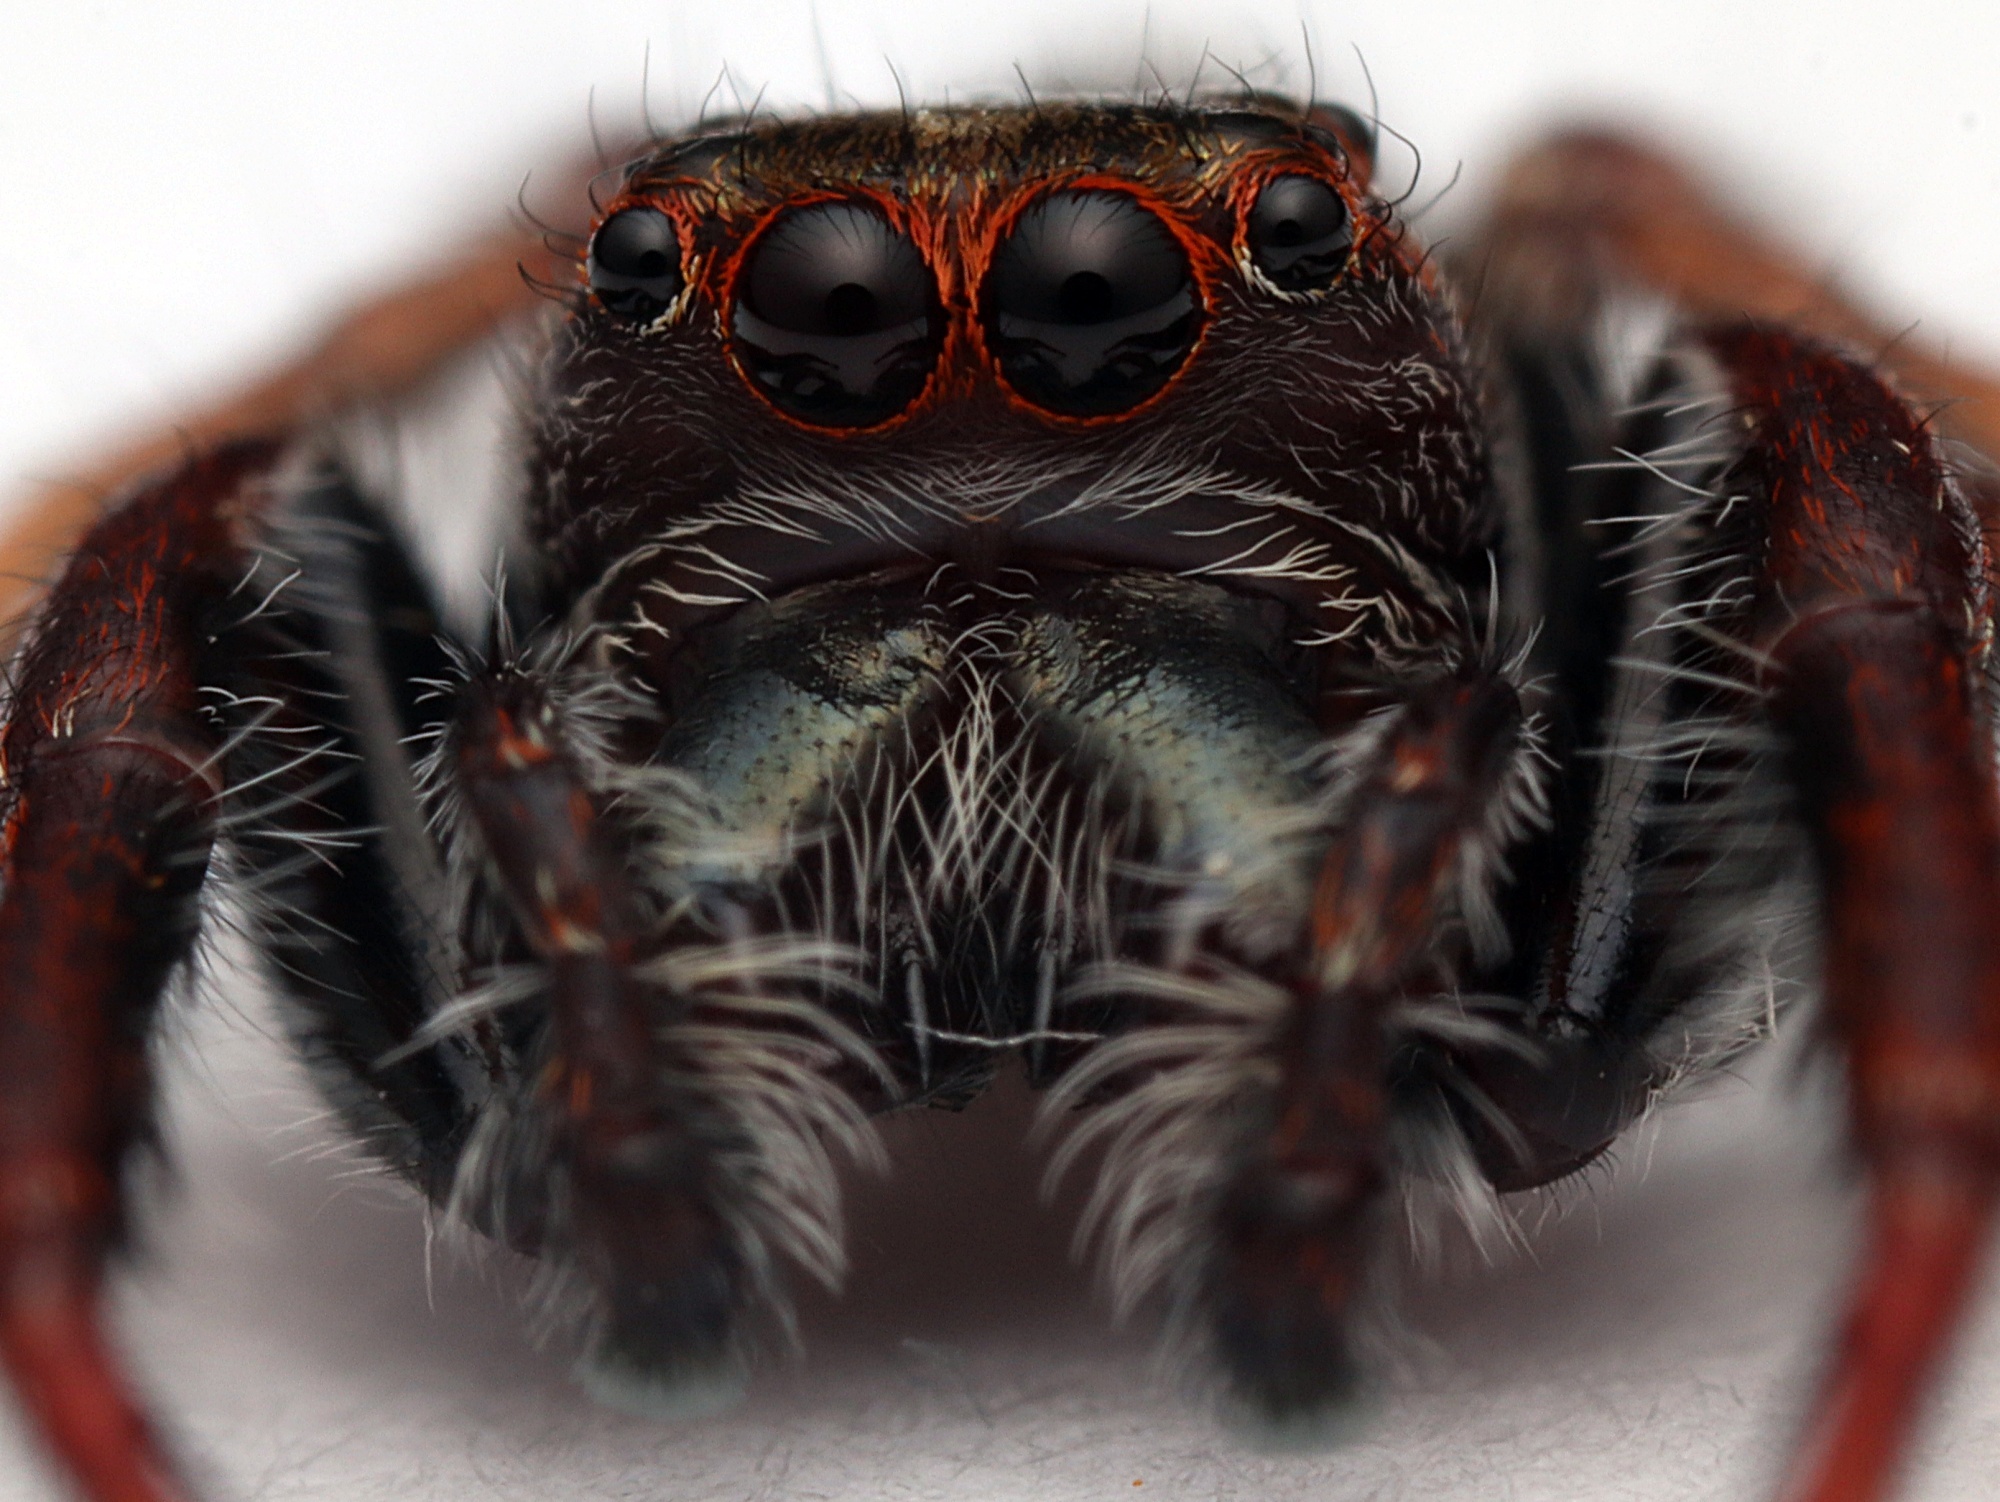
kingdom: Animalia
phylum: Arthropoda
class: Arachnida
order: Araneae
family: Salticidae
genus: Opisthoncus
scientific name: Opisthoncus polyphemus
